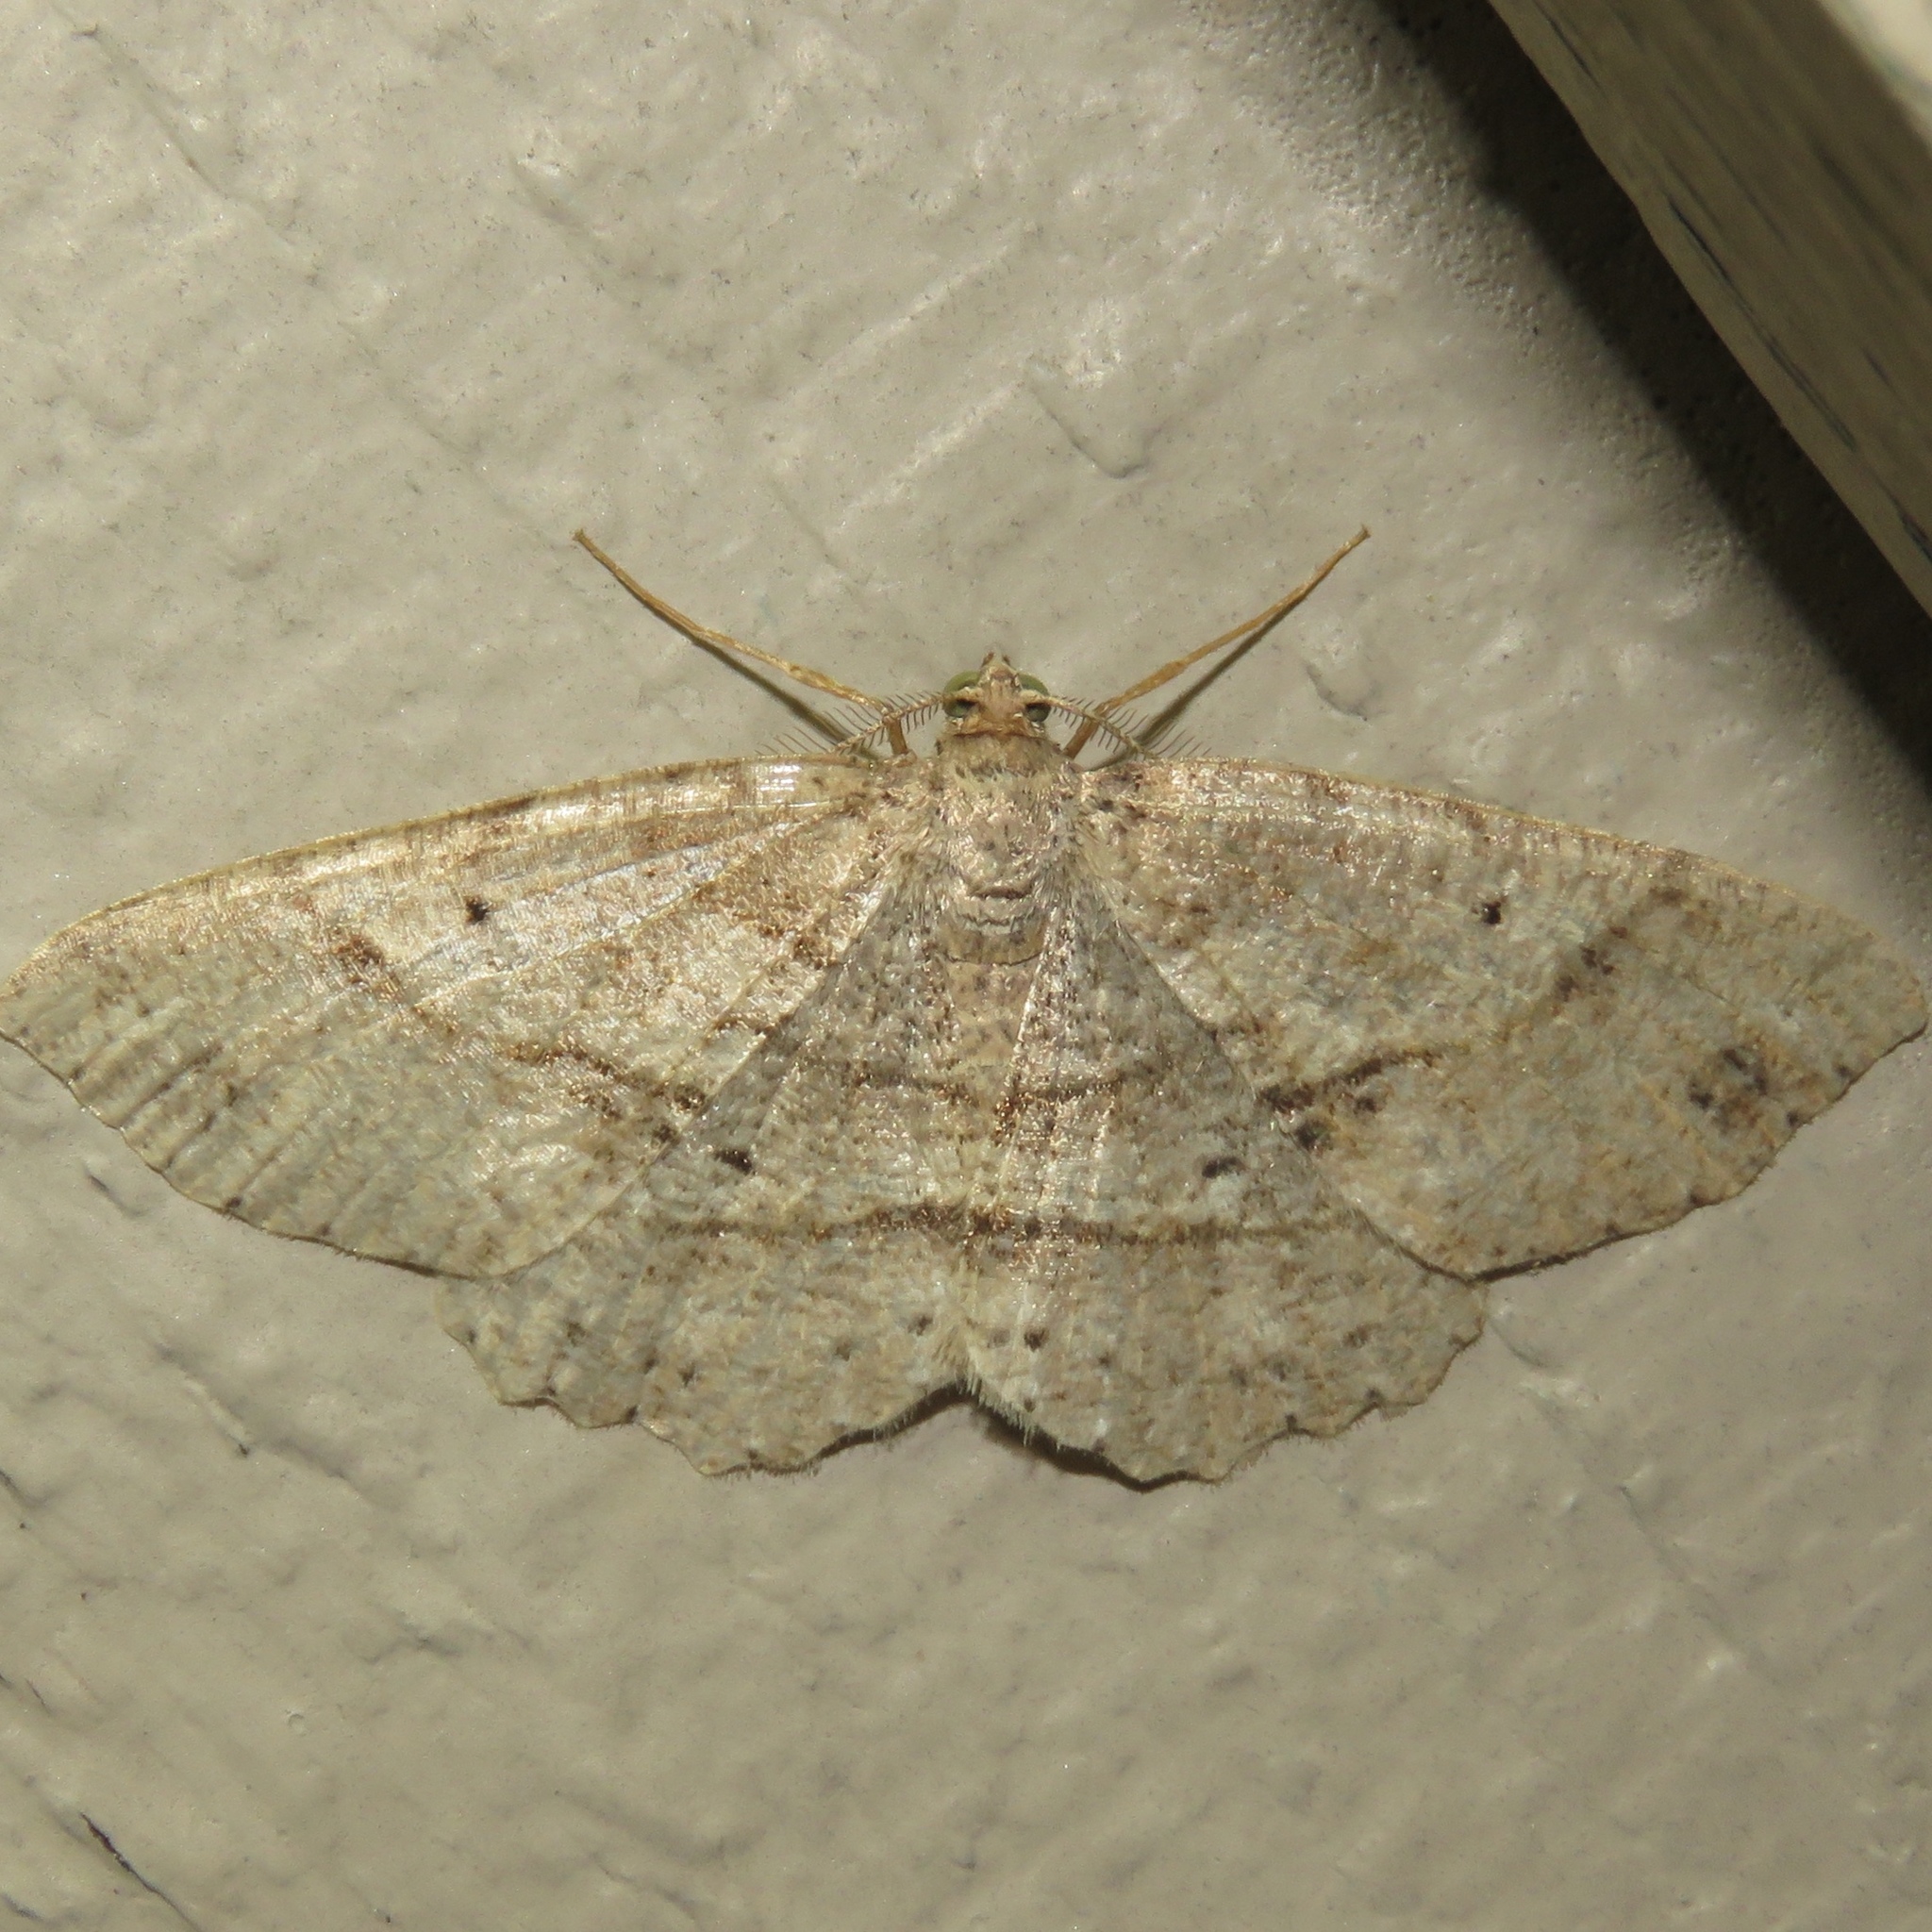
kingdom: Animalia
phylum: Arthropoda
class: Insecta
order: Lepidoptera
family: Geometridae
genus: Melanolophia
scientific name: Melanolophia signataria
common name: Signate melanolophia
